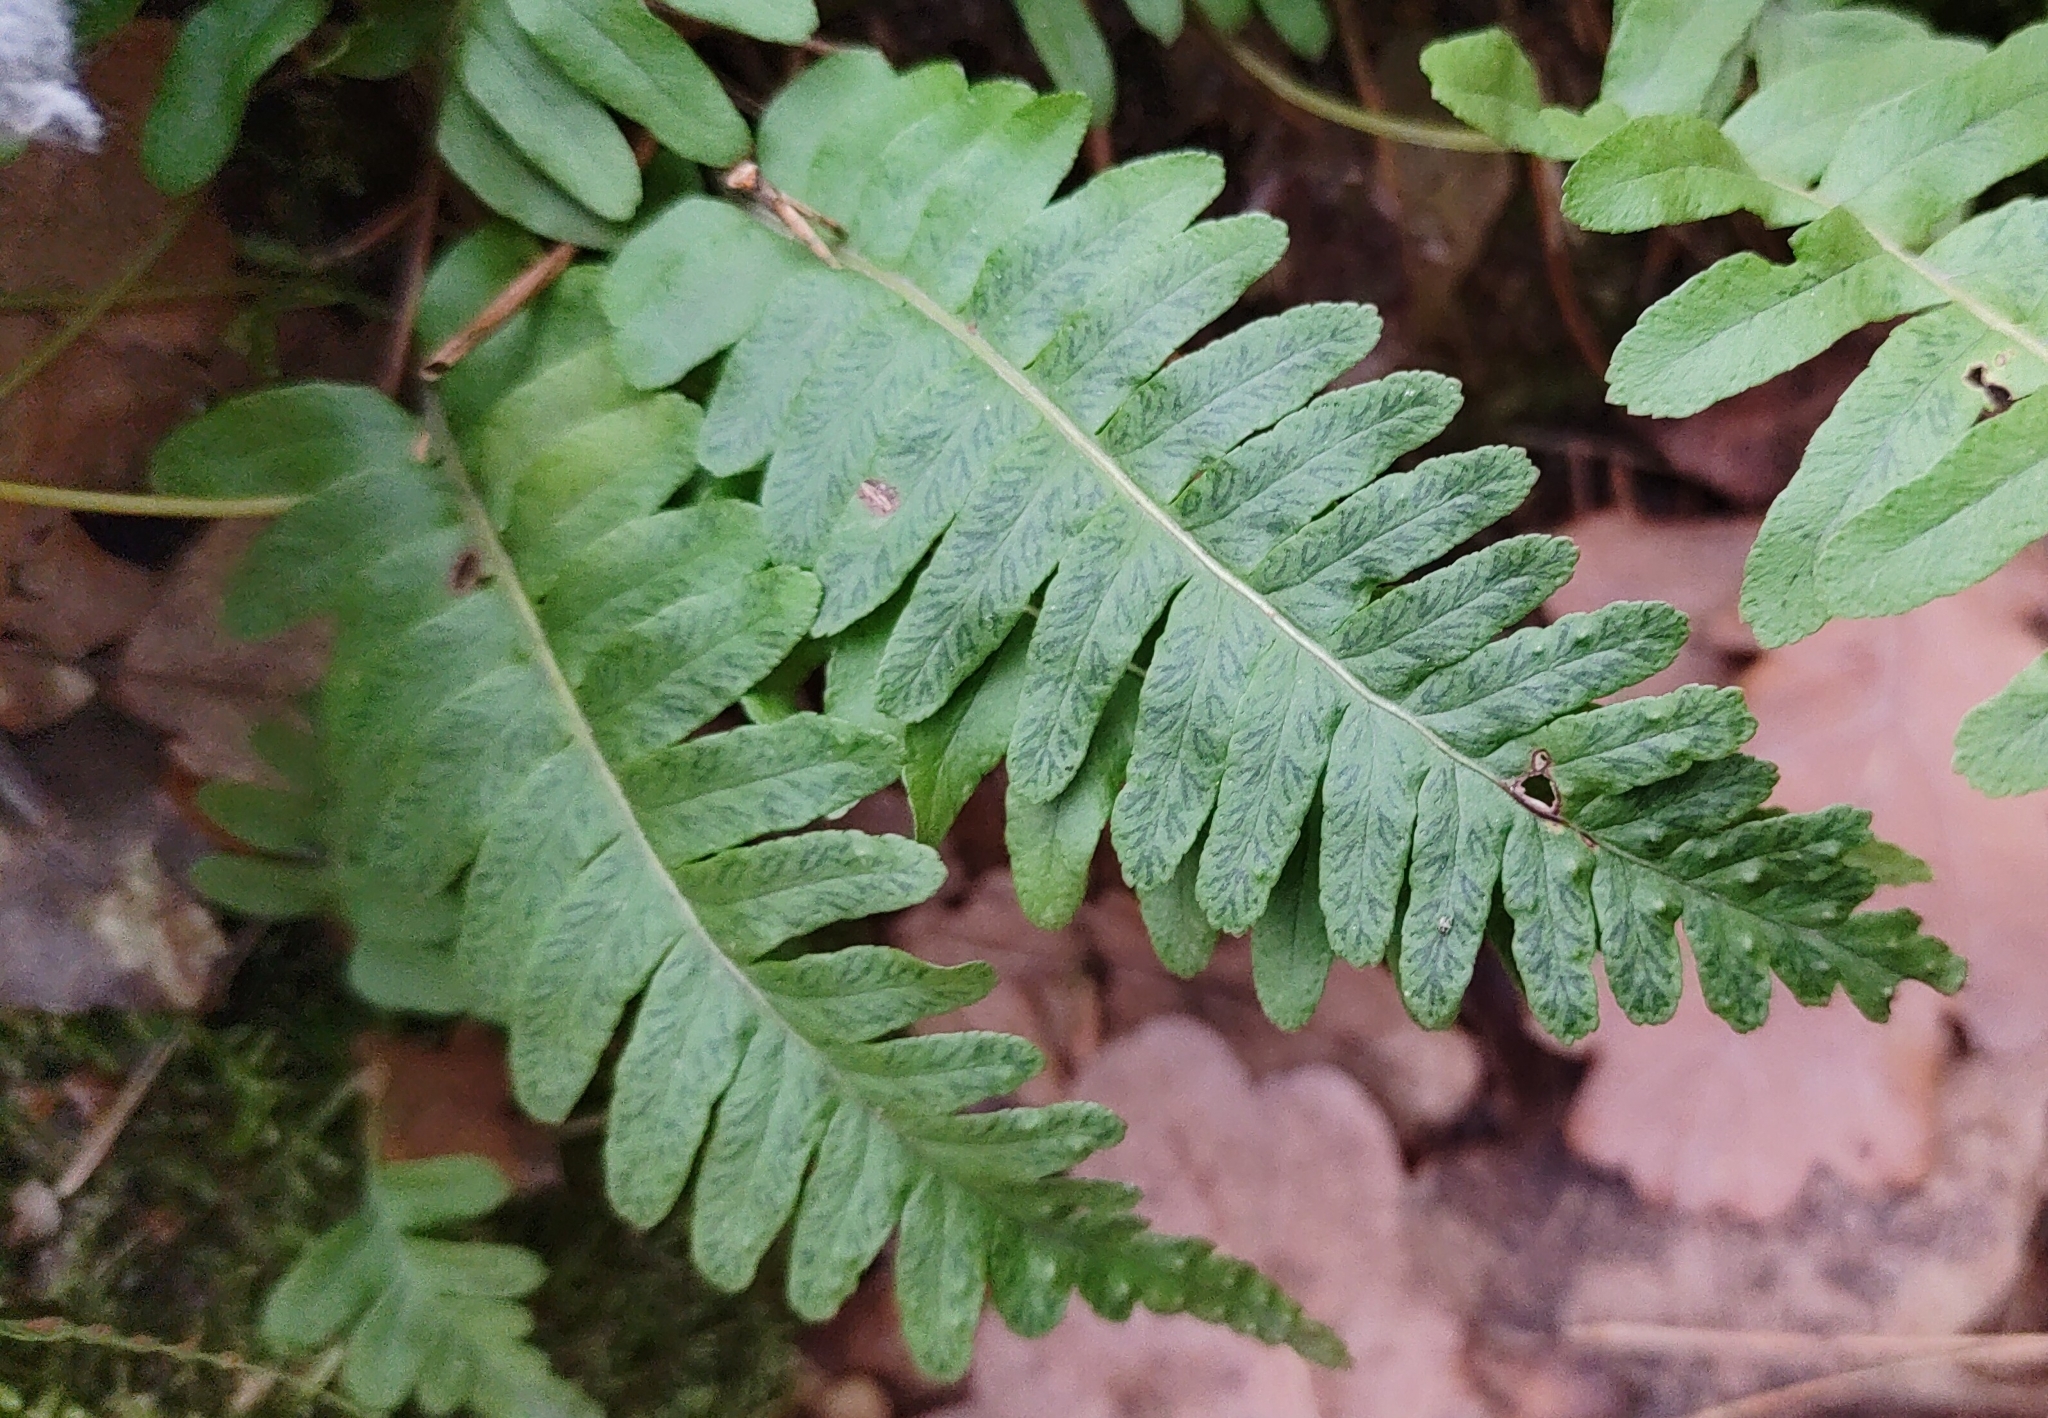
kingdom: Plantae
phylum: Tracheophyta
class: Polypodiopsida
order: Polypodiales
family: Polypodiaceae
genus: Polypodium
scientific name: Polypodium vulgare
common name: Common polypody
